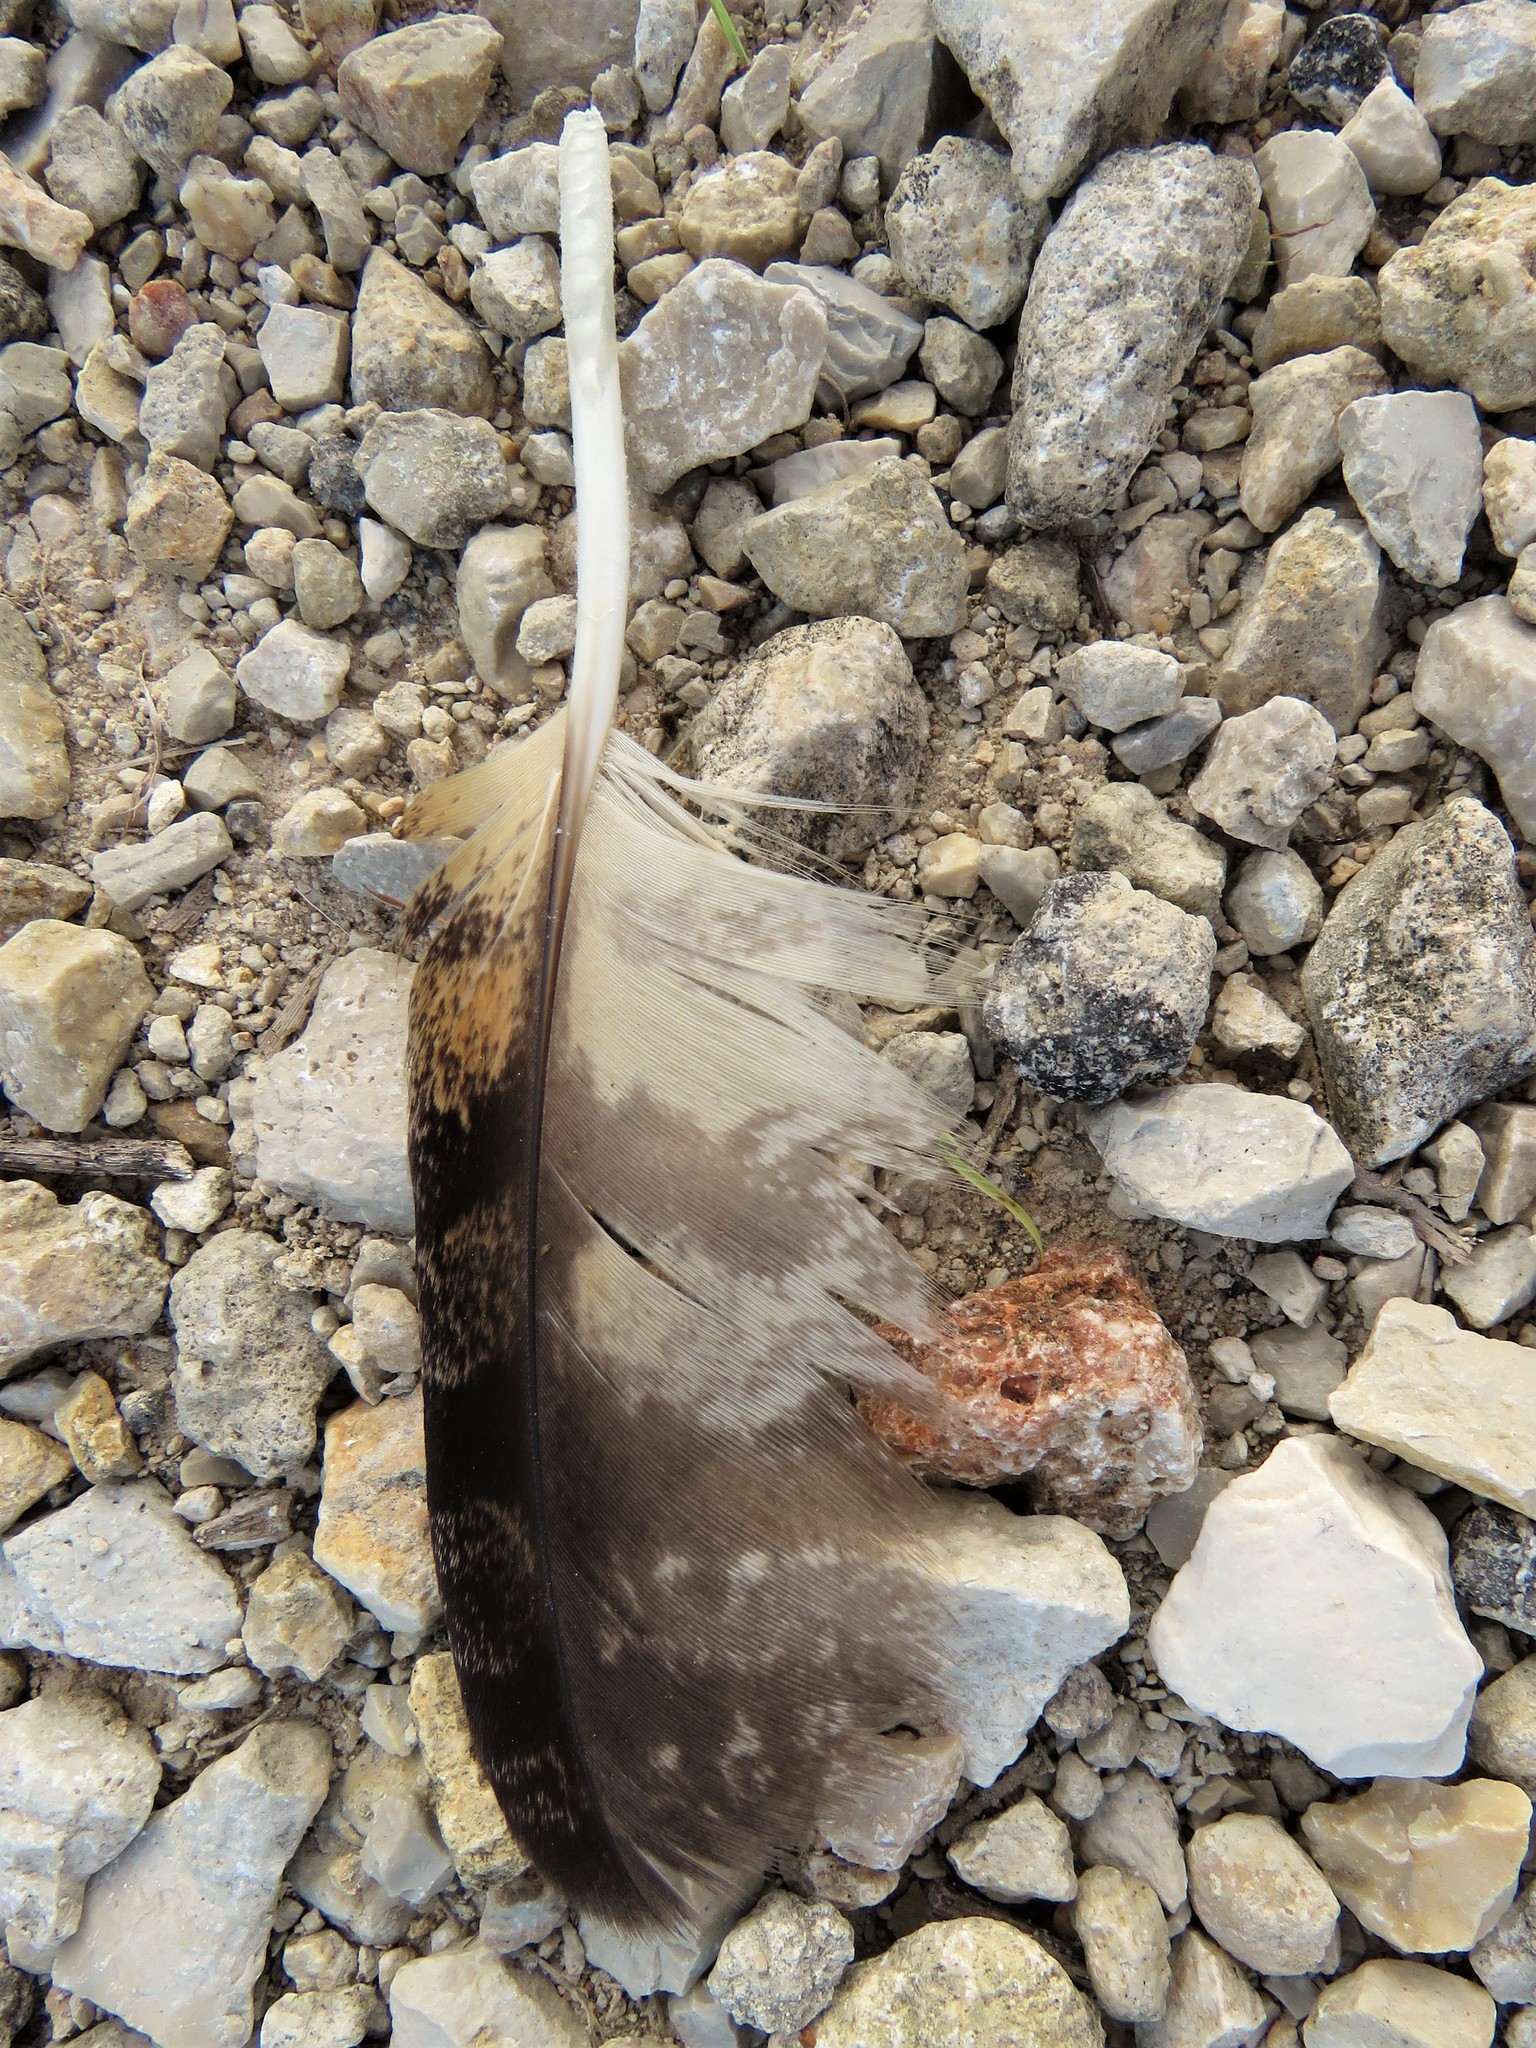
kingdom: Animalia
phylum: Chordata
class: Aves
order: Strigiformes
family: Strigidae
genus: Bubo
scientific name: Bubo virginianus
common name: Great horned owl
